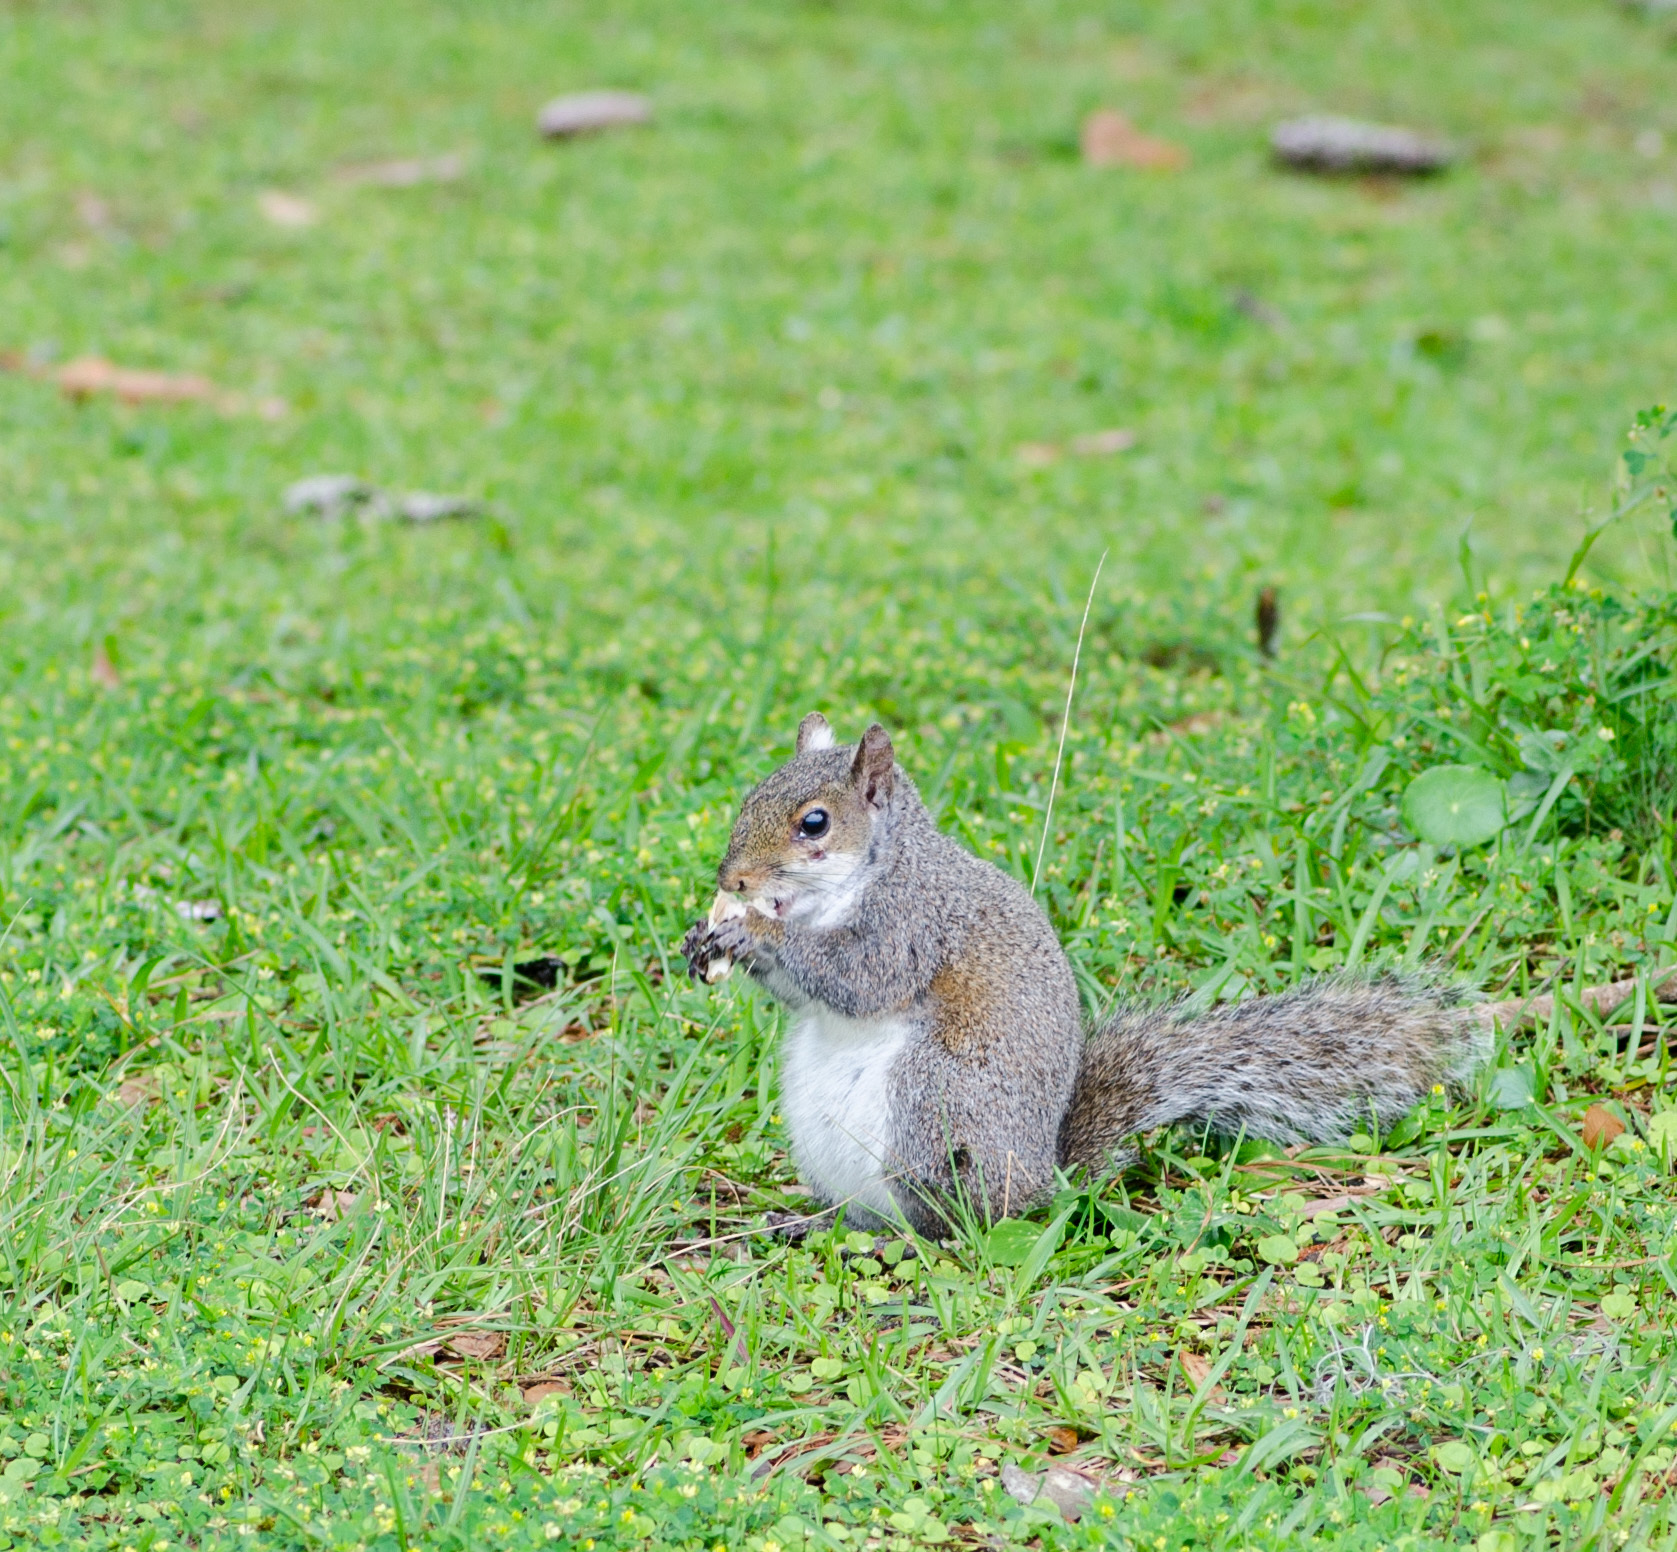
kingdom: Animalia
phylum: Chordata
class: Mammalia
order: Rodentia
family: Sciuridae
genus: Sciurus
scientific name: Sciurus carolinensis
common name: Eastern gray squirrel
